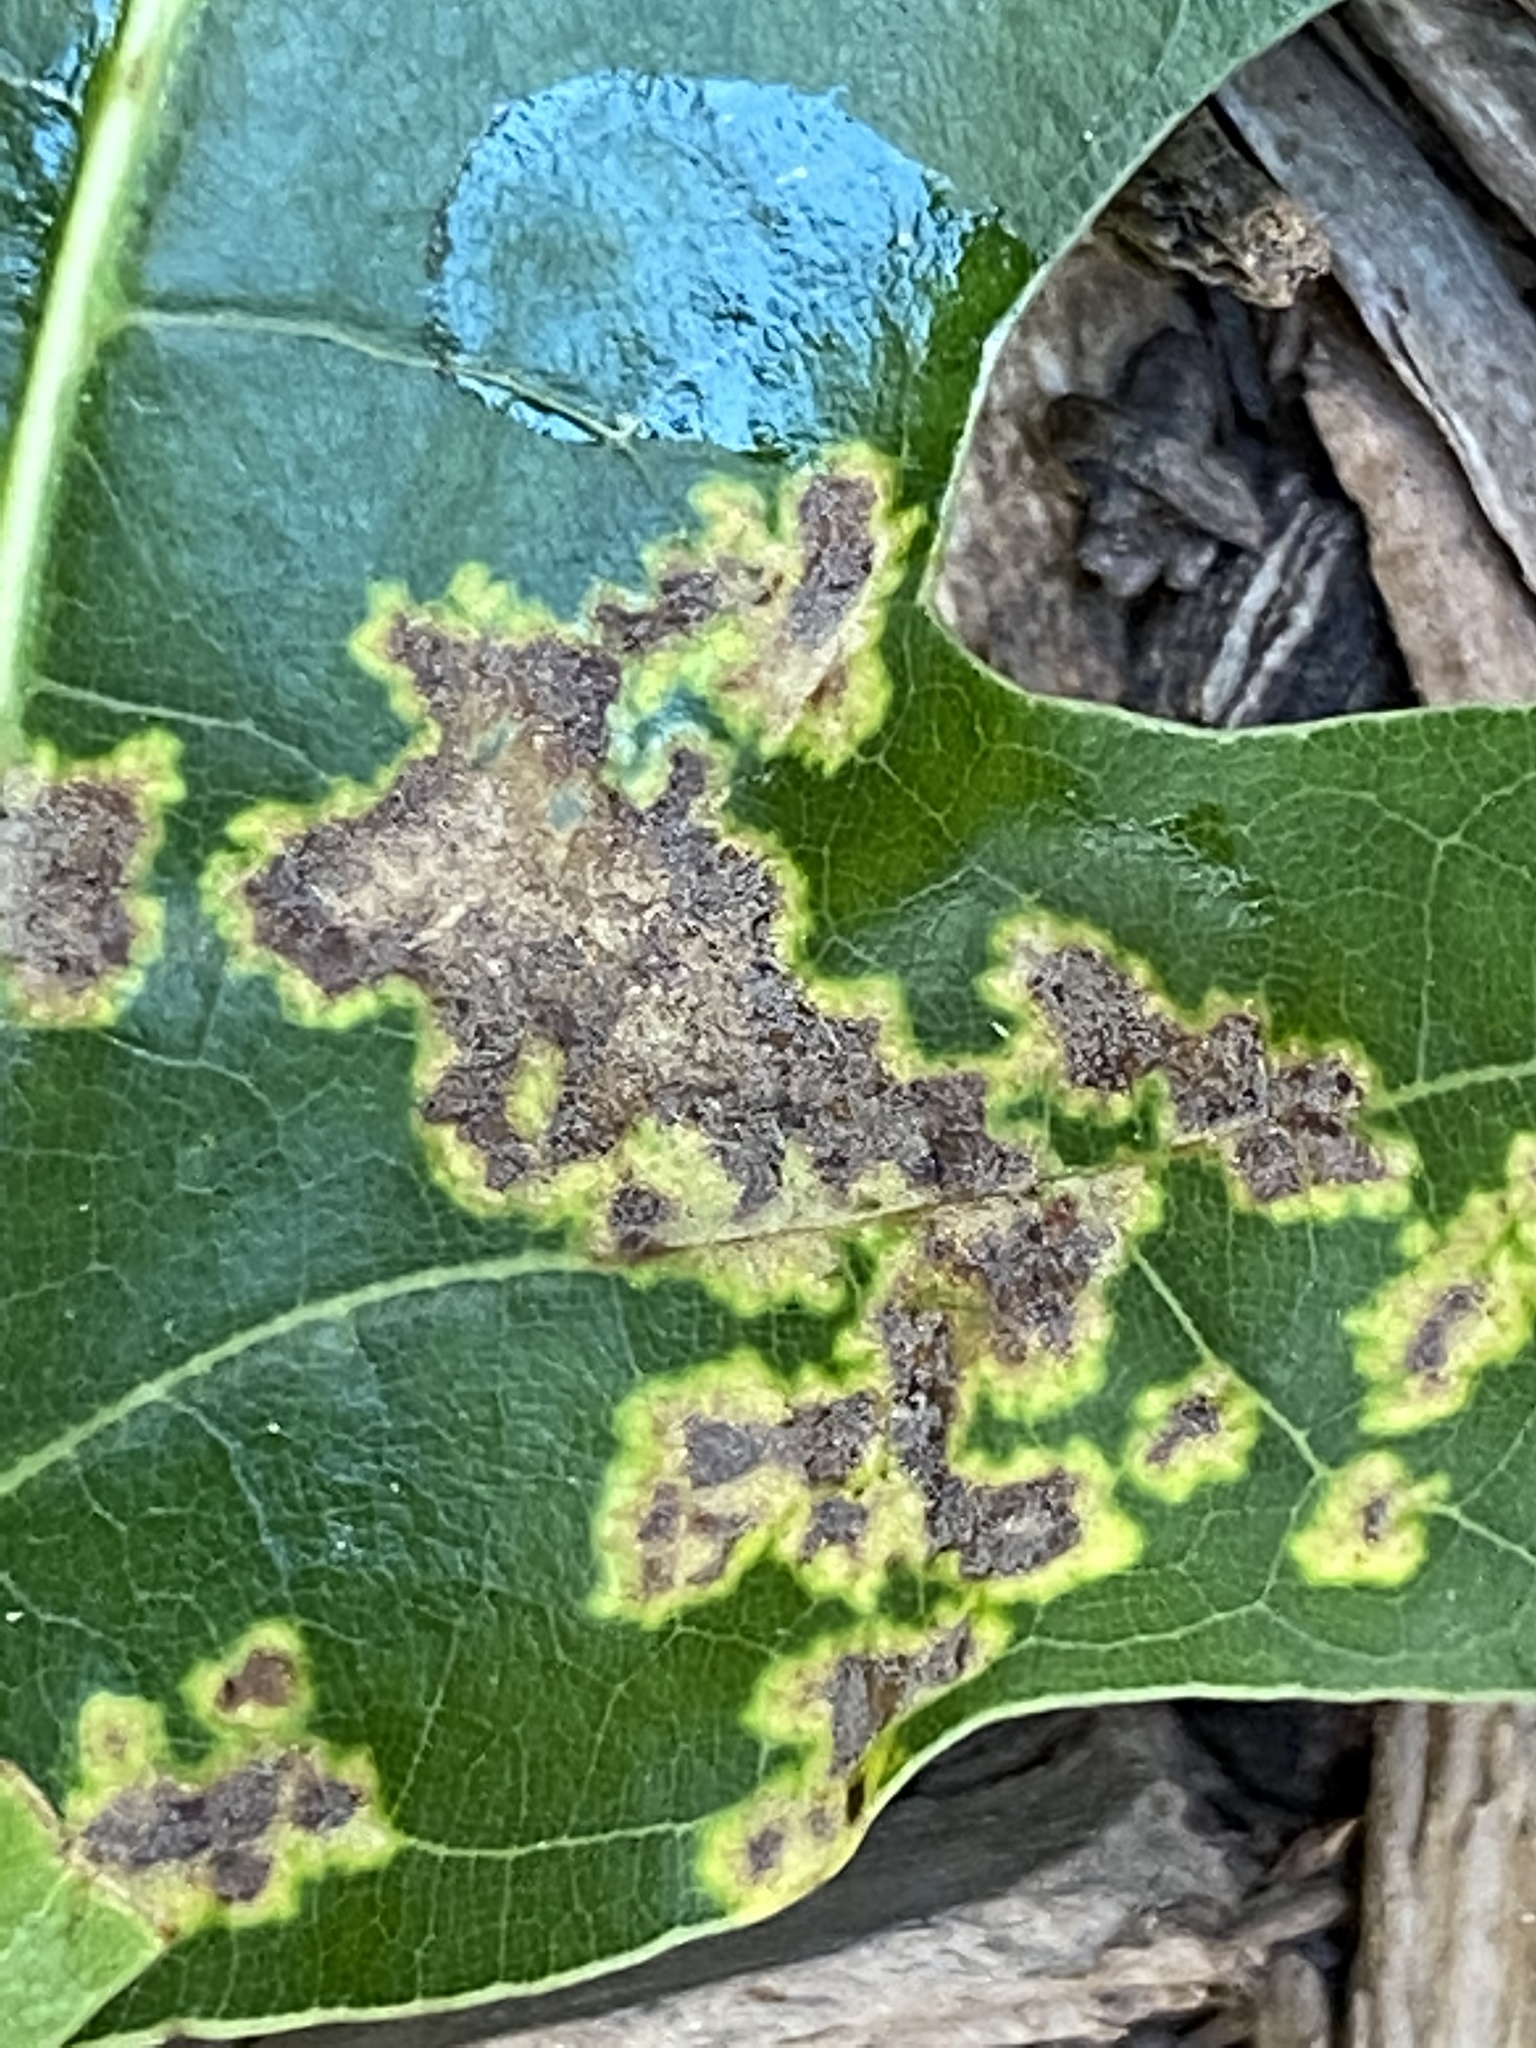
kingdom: Fungi
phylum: Ascomycota
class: Taphrinomycetes
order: Taphrinales
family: Taphrinaceae
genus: Taphrina
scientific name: Taphrina caerulescens
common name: Oak leaf blister
